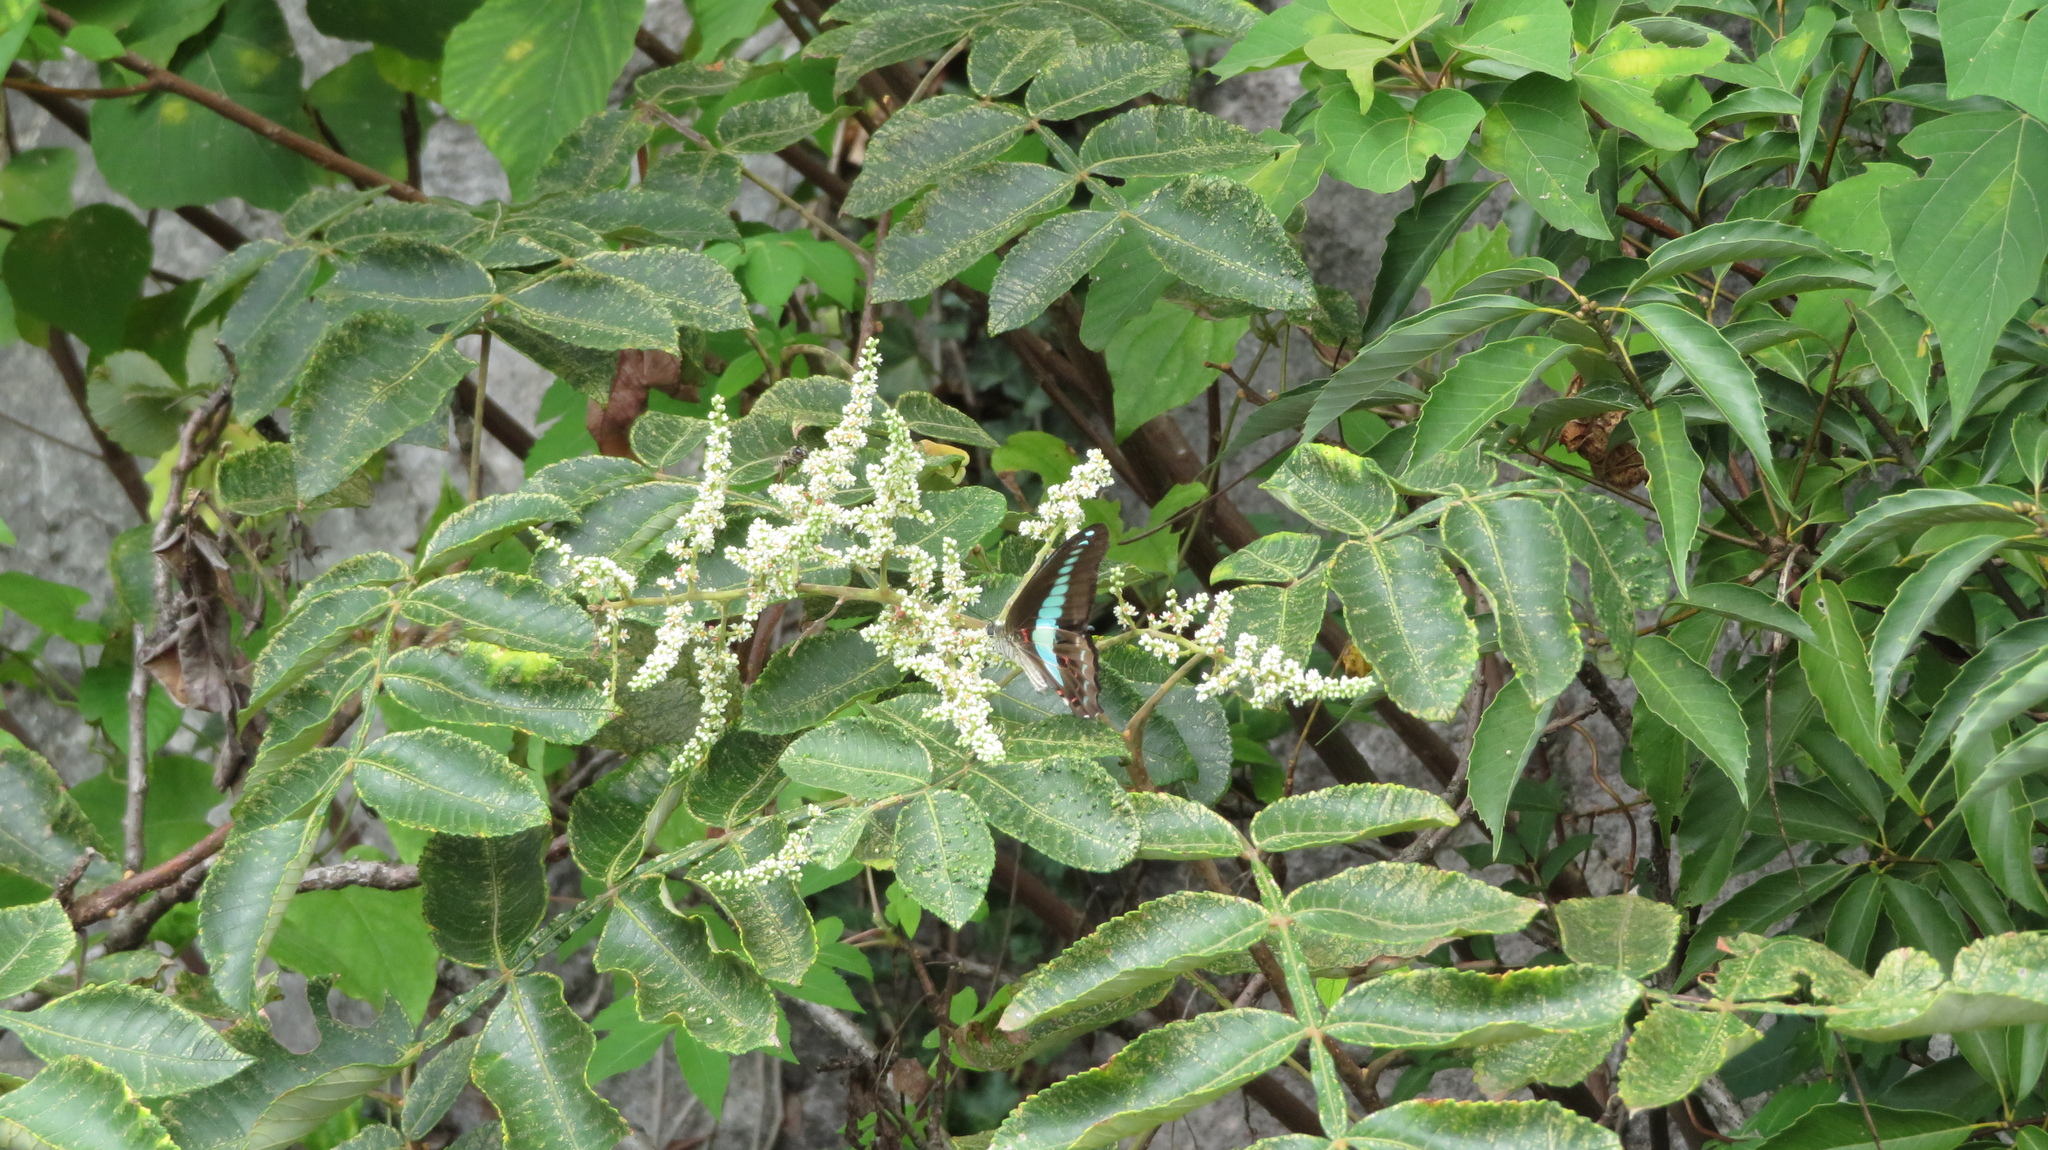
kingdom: Fungi
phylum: Ascomycota
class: Sordariomycetes
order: Microascales
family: Microascaceae
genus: Graphium
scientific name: Graphium sarpedon
